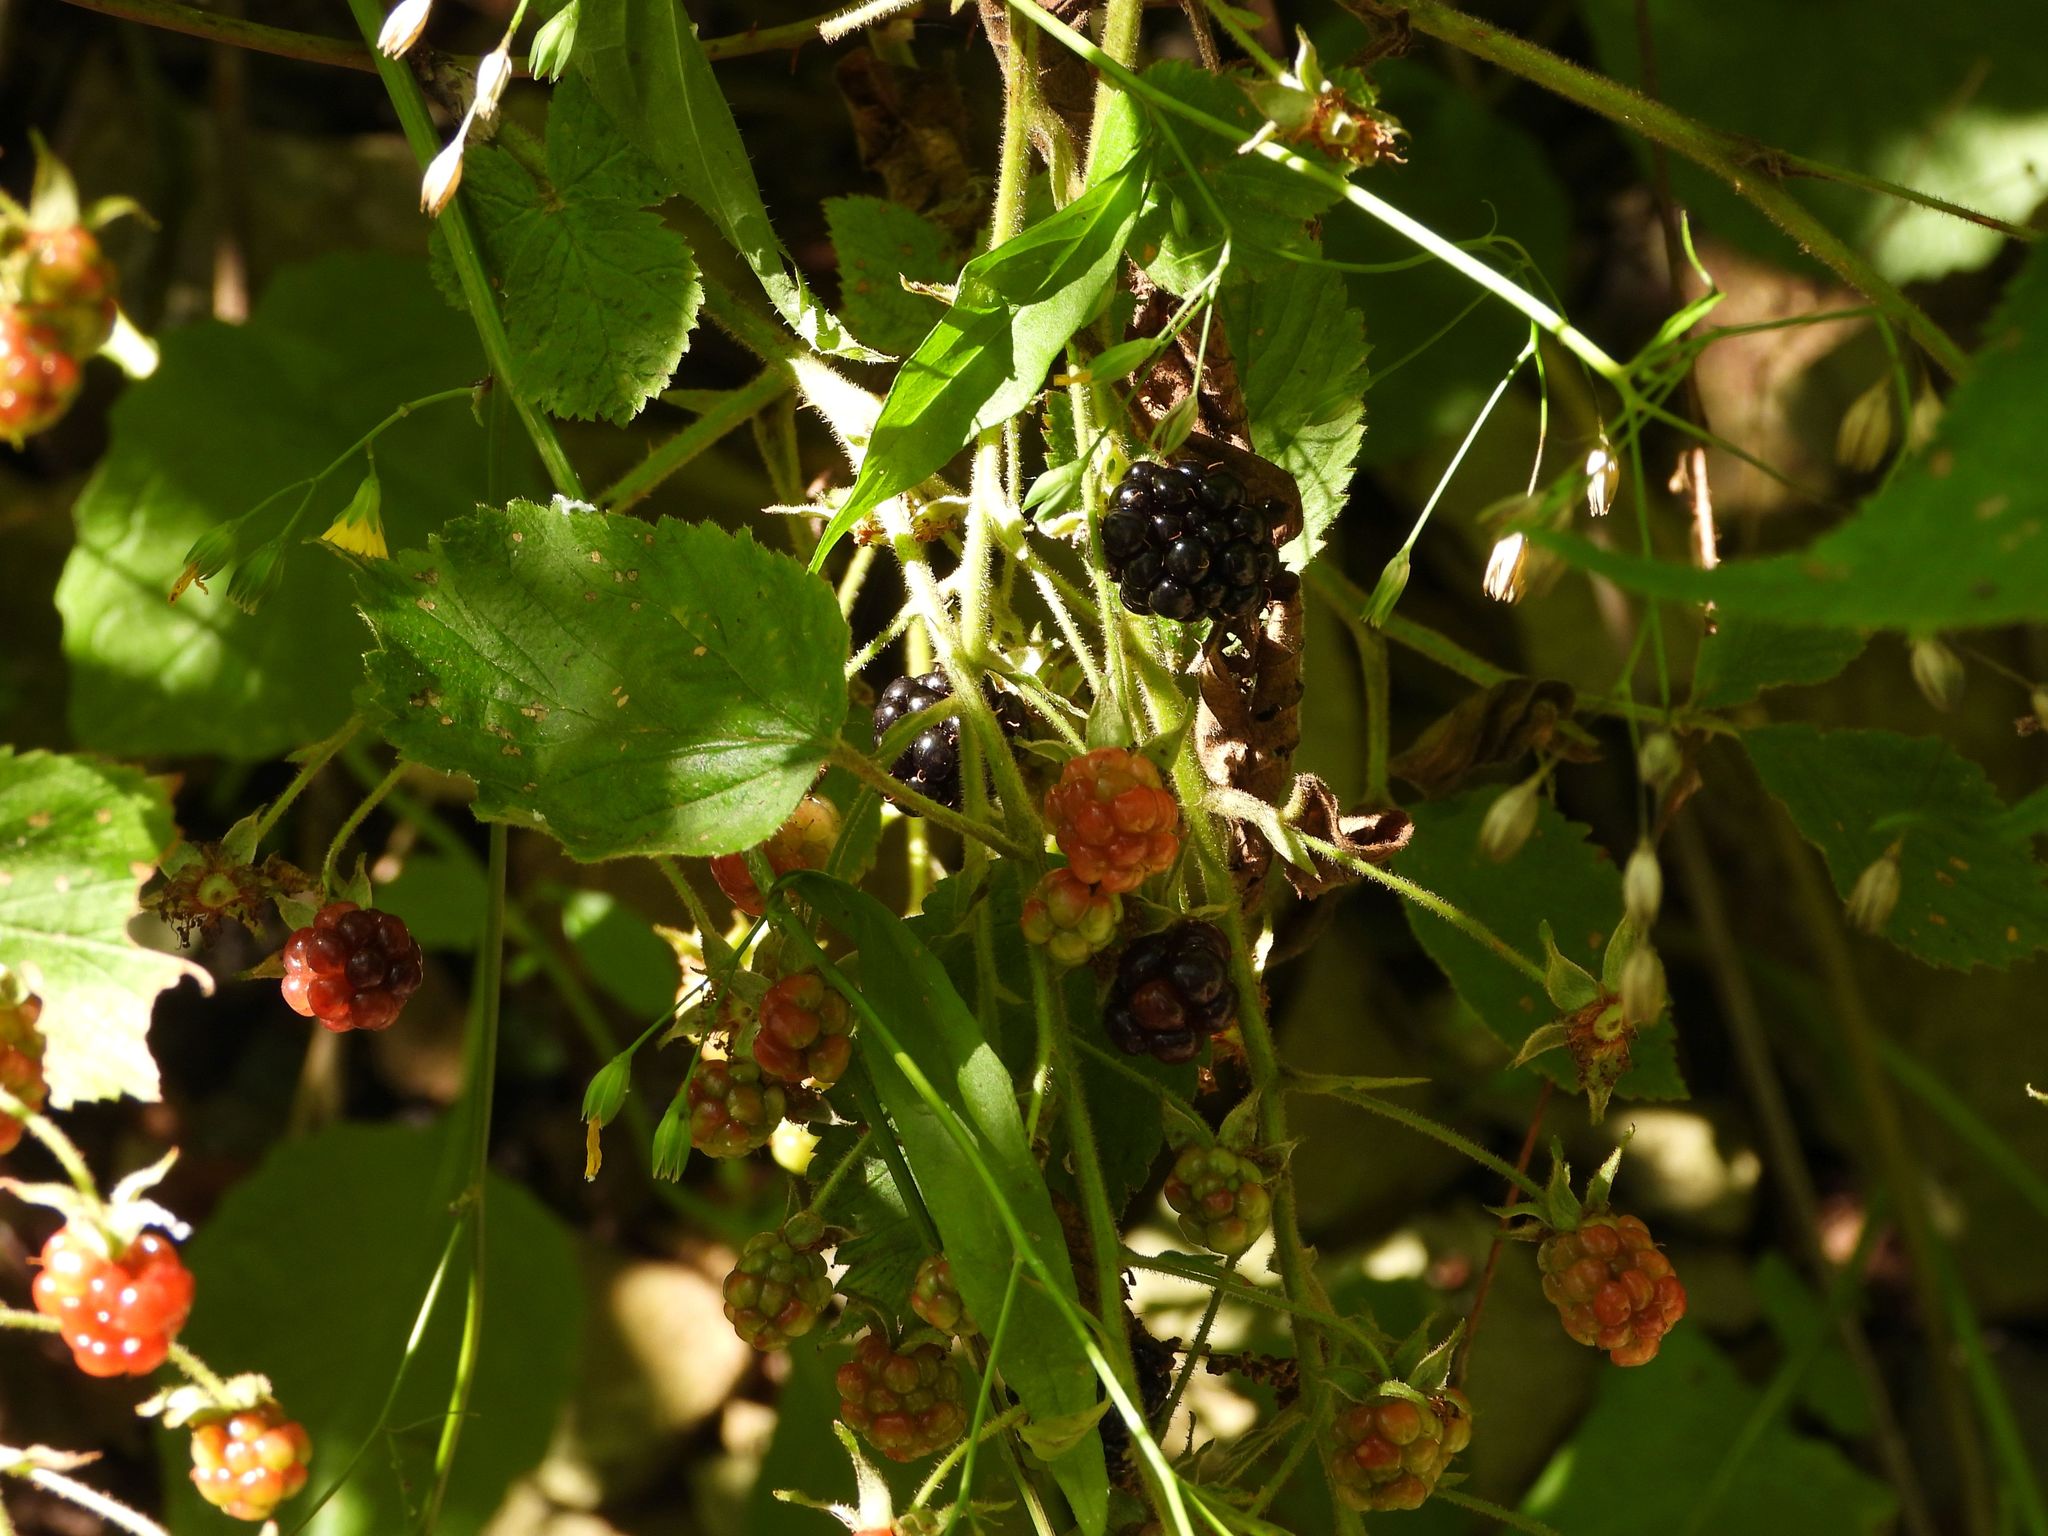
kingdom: Plantae
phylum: Tracheophyta
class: Magnoliopsida
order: Rosales
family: Rosaceae
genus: Rubus
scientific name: Rubus allegheniensis
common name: Allegheny blackberry
